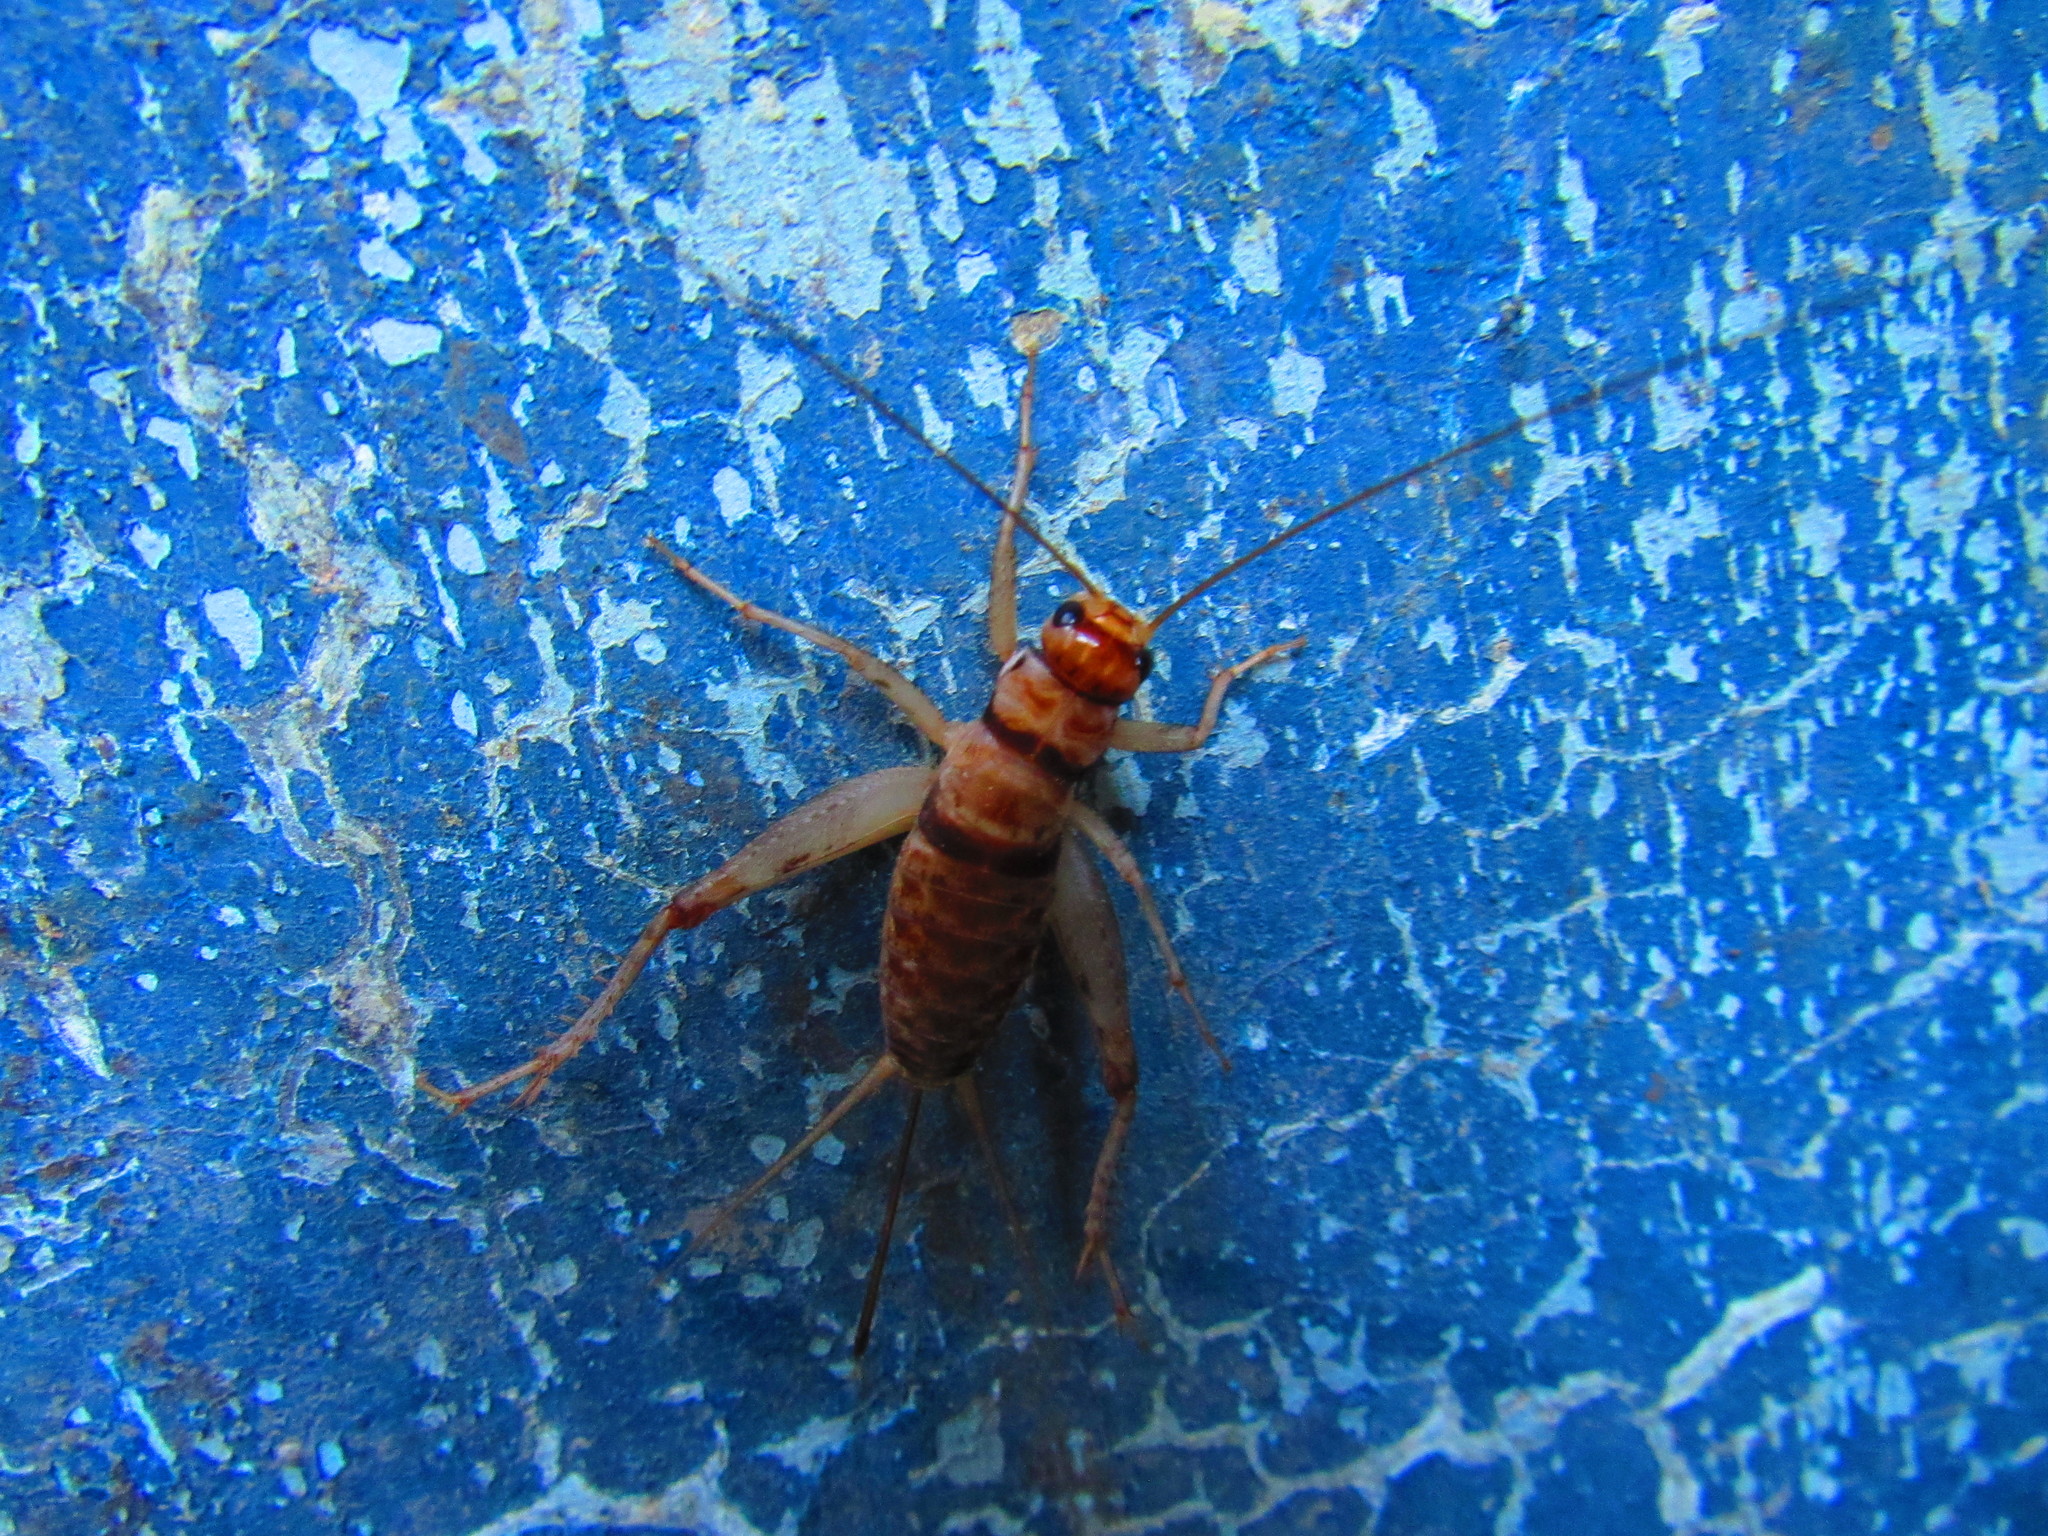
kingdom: Animalia
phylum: Arthropoda
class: Insecta
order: Orthoptera
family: Gryllidae
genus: Gryllodes
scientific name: Gryllodes sigillatus
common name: Tropical house cricket
